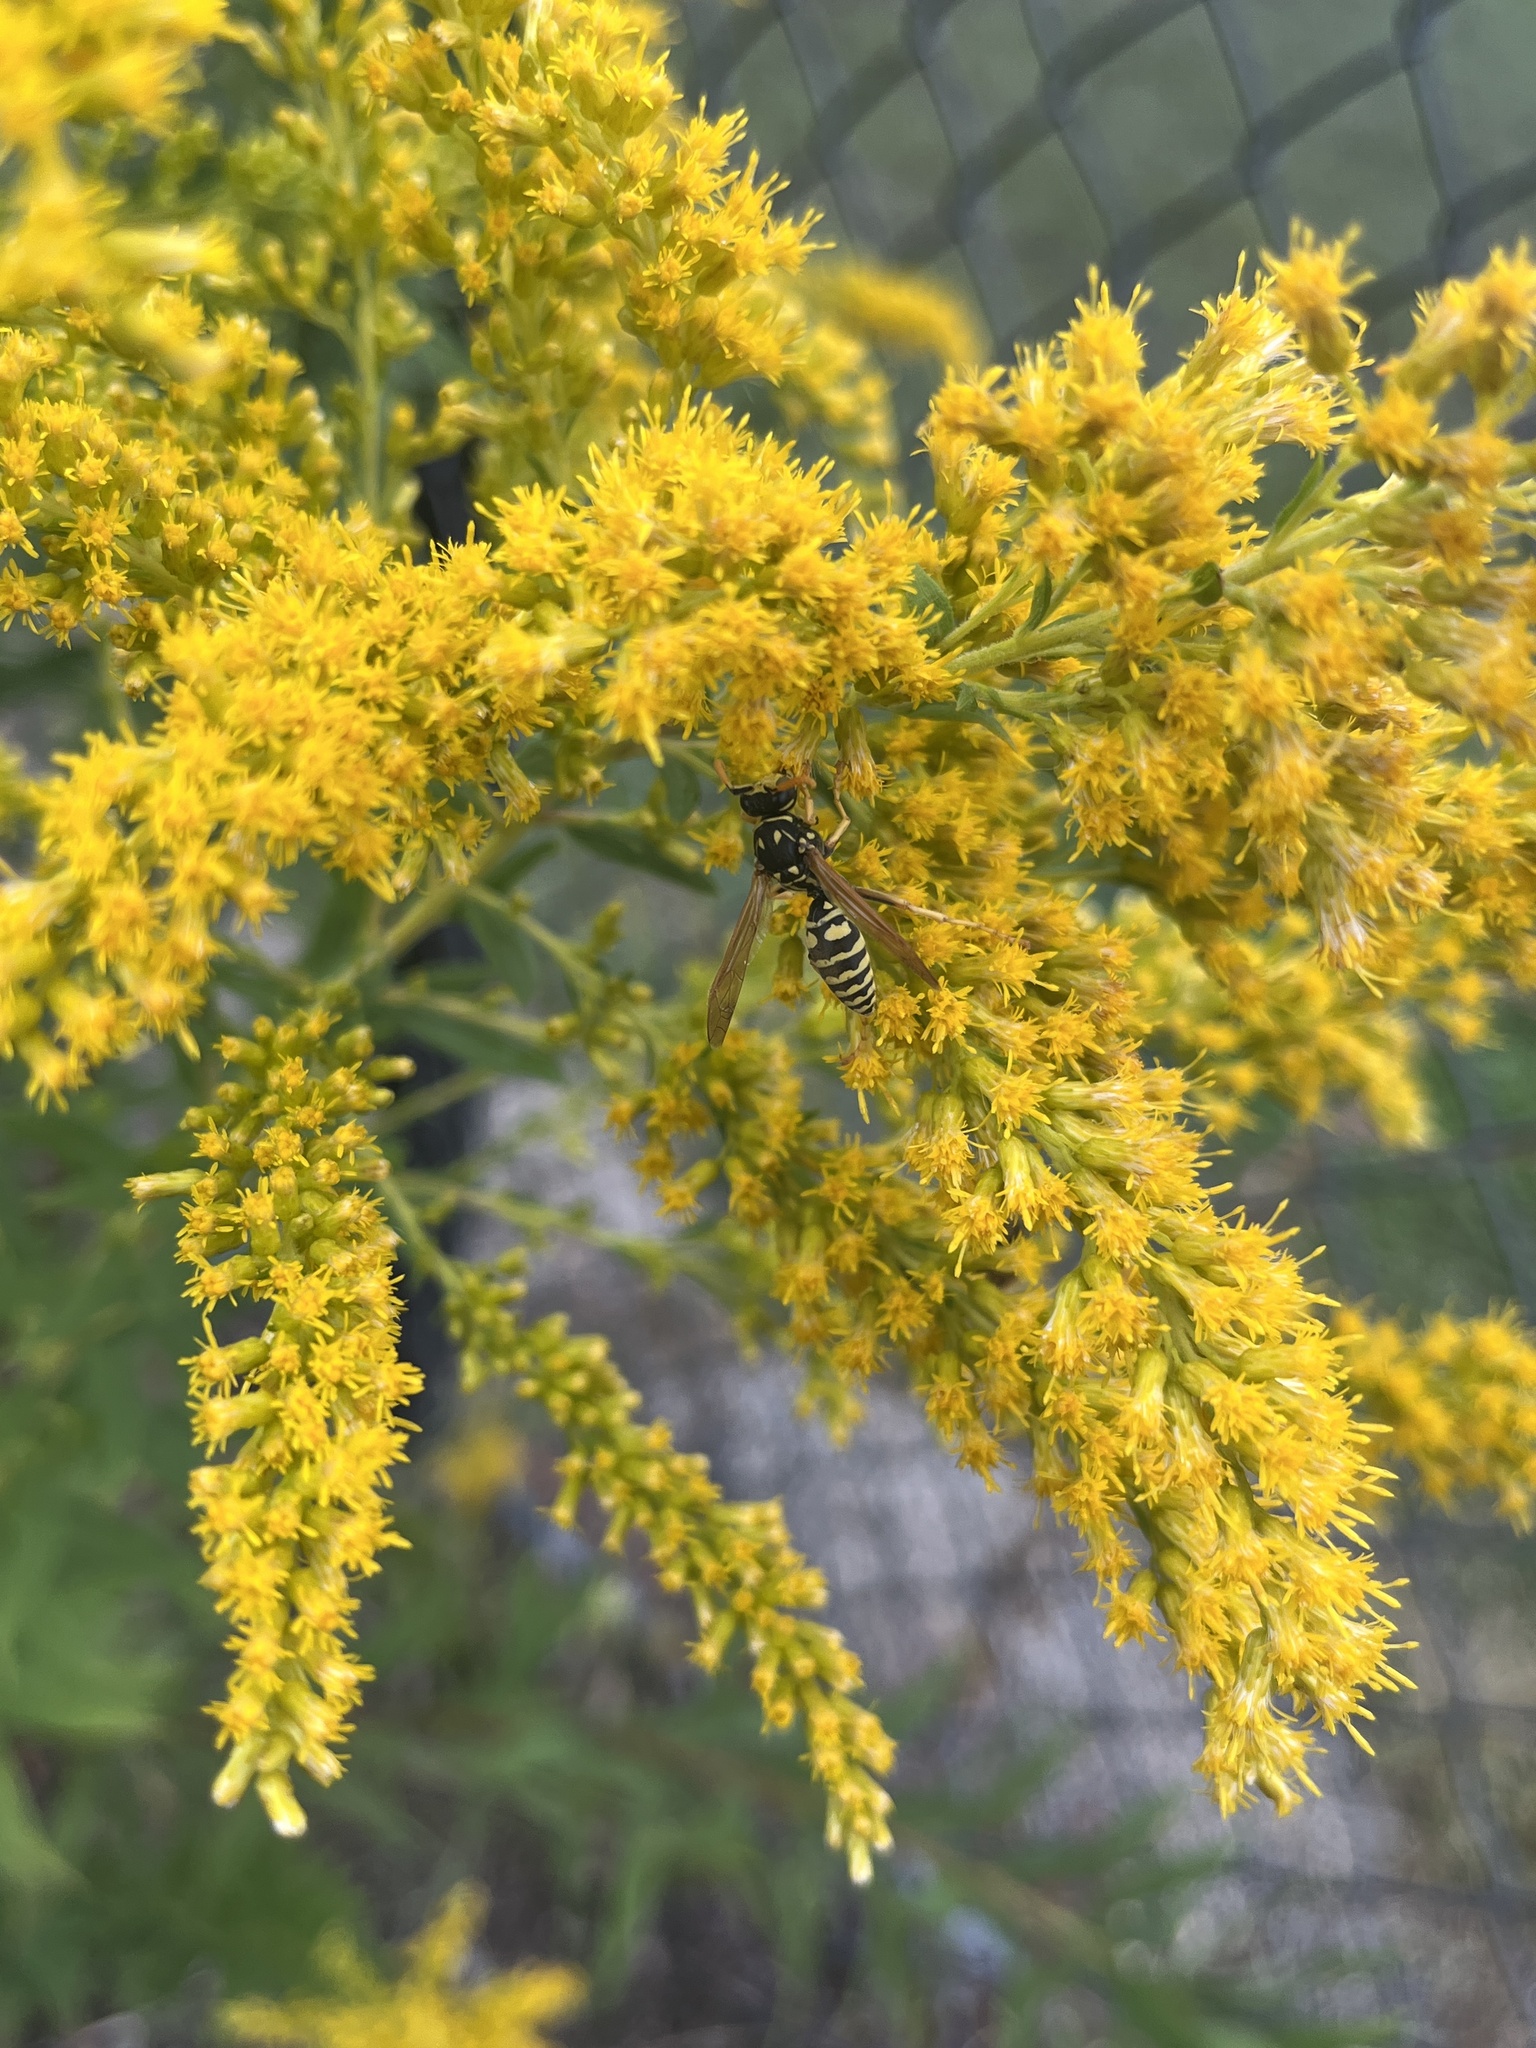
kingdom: Animalia
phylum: Arthropoda
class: Insecta
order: Hymenoptera
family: Eumenidae
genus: Polistes
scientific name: Polistes dominula
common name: Paper wasp
